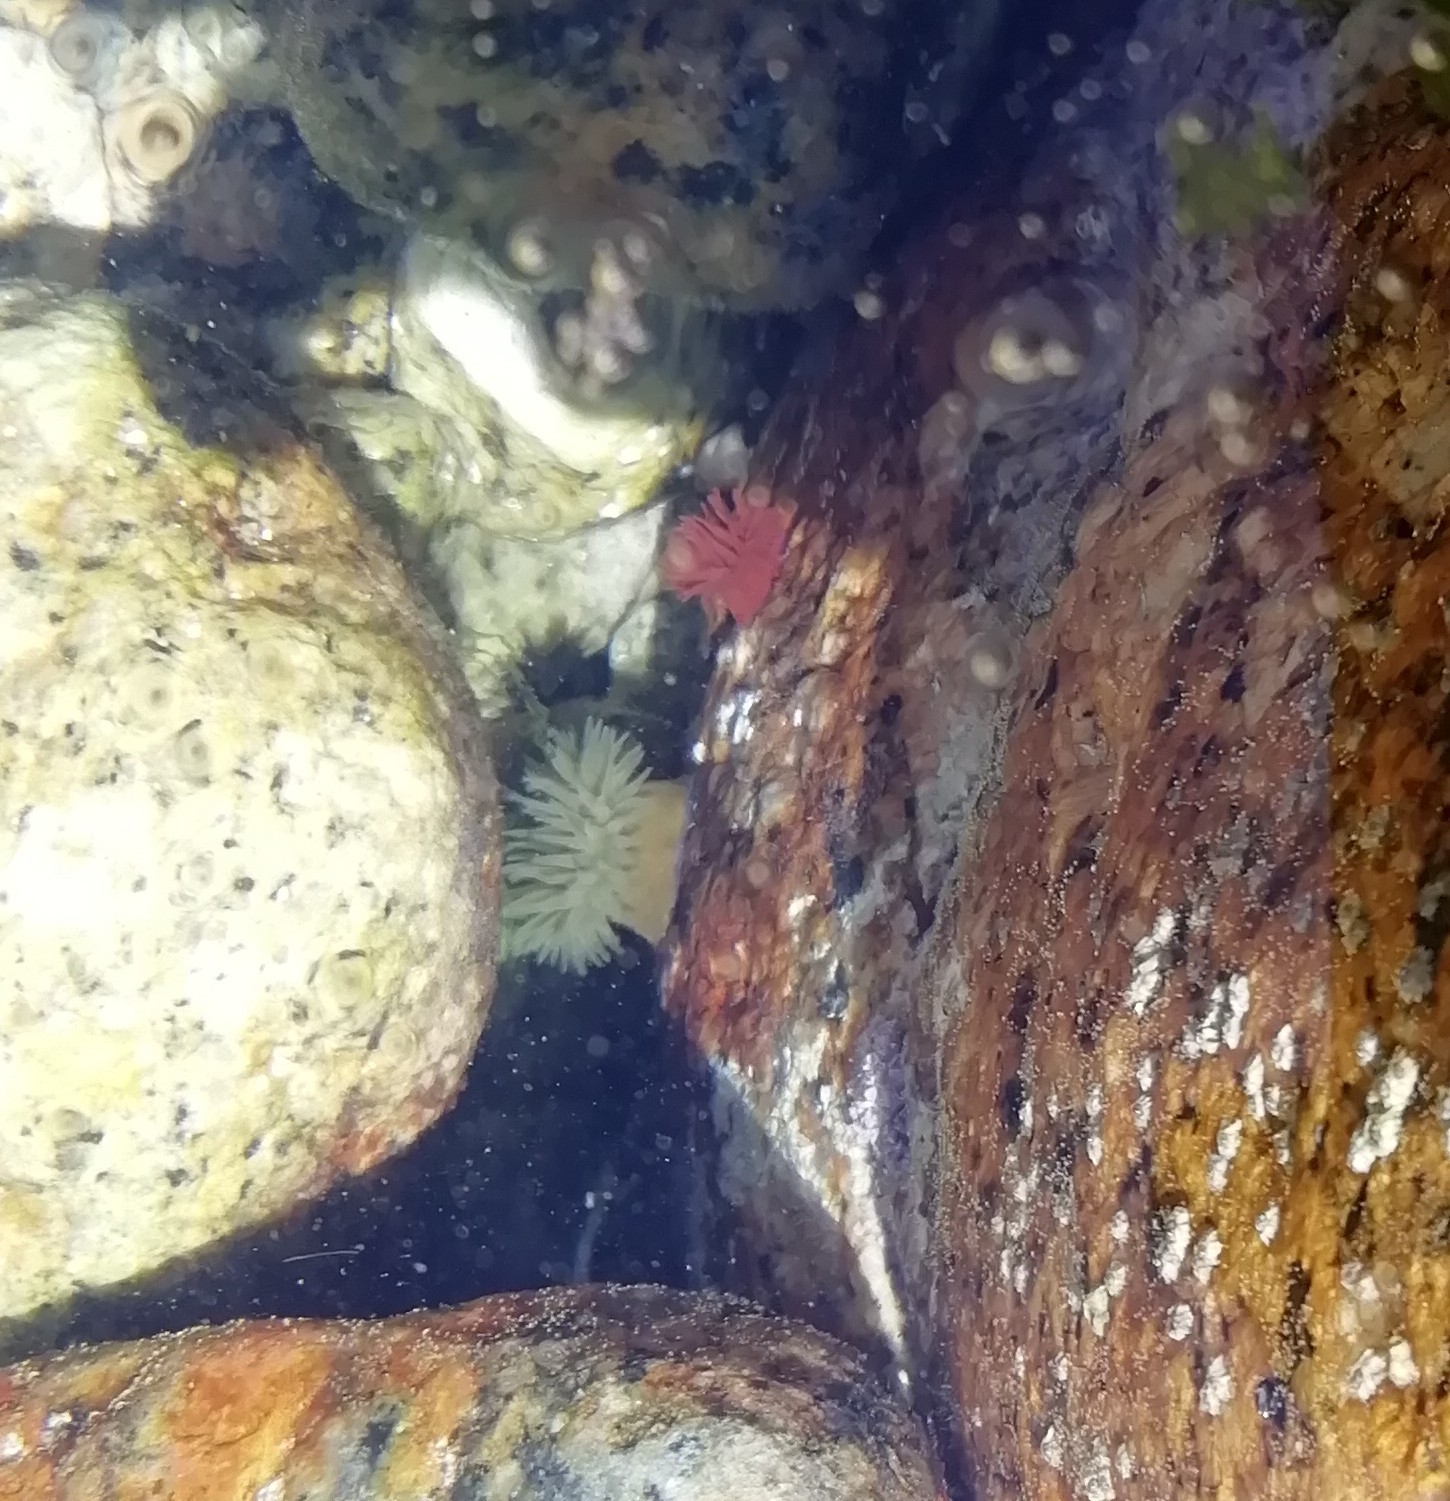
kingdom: Animalia
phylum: Cnidaria
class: Anthozoa
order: Actiniaria
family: Actiniidae
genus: Actinia
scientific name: Actinia equina
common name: Beadlet anemone
